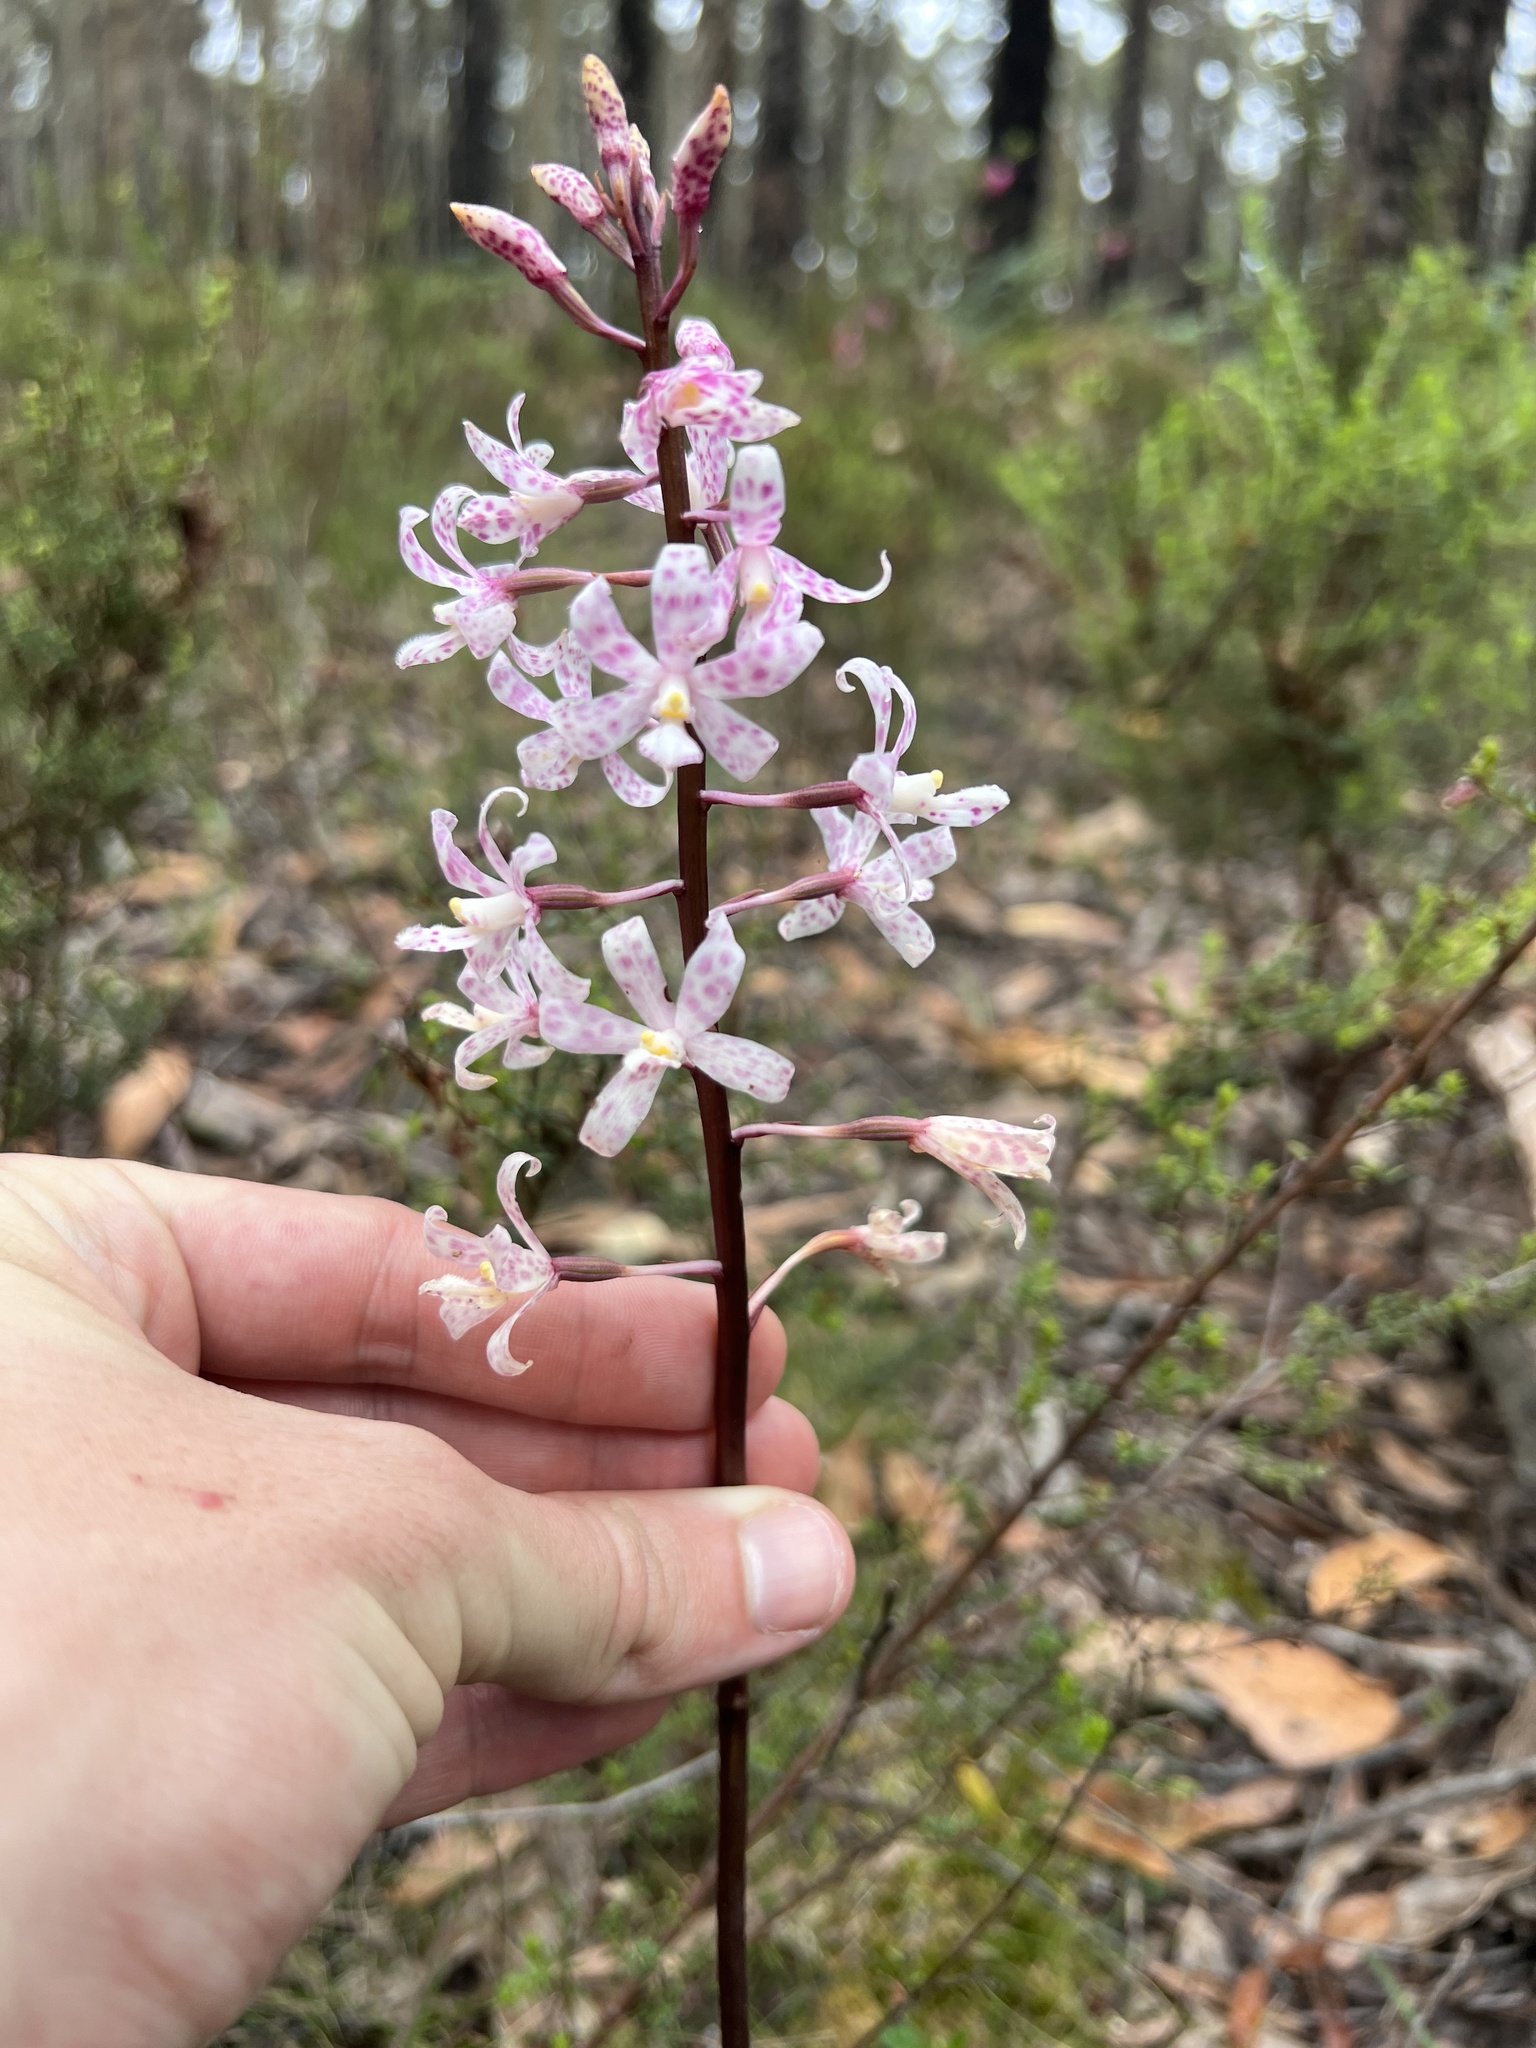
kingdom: Plantae
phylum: Tracheophyta
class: Liliopsida
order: Asparagales
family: Orchidaceae
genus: Dipodium
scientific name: Dipodium pardalinum
